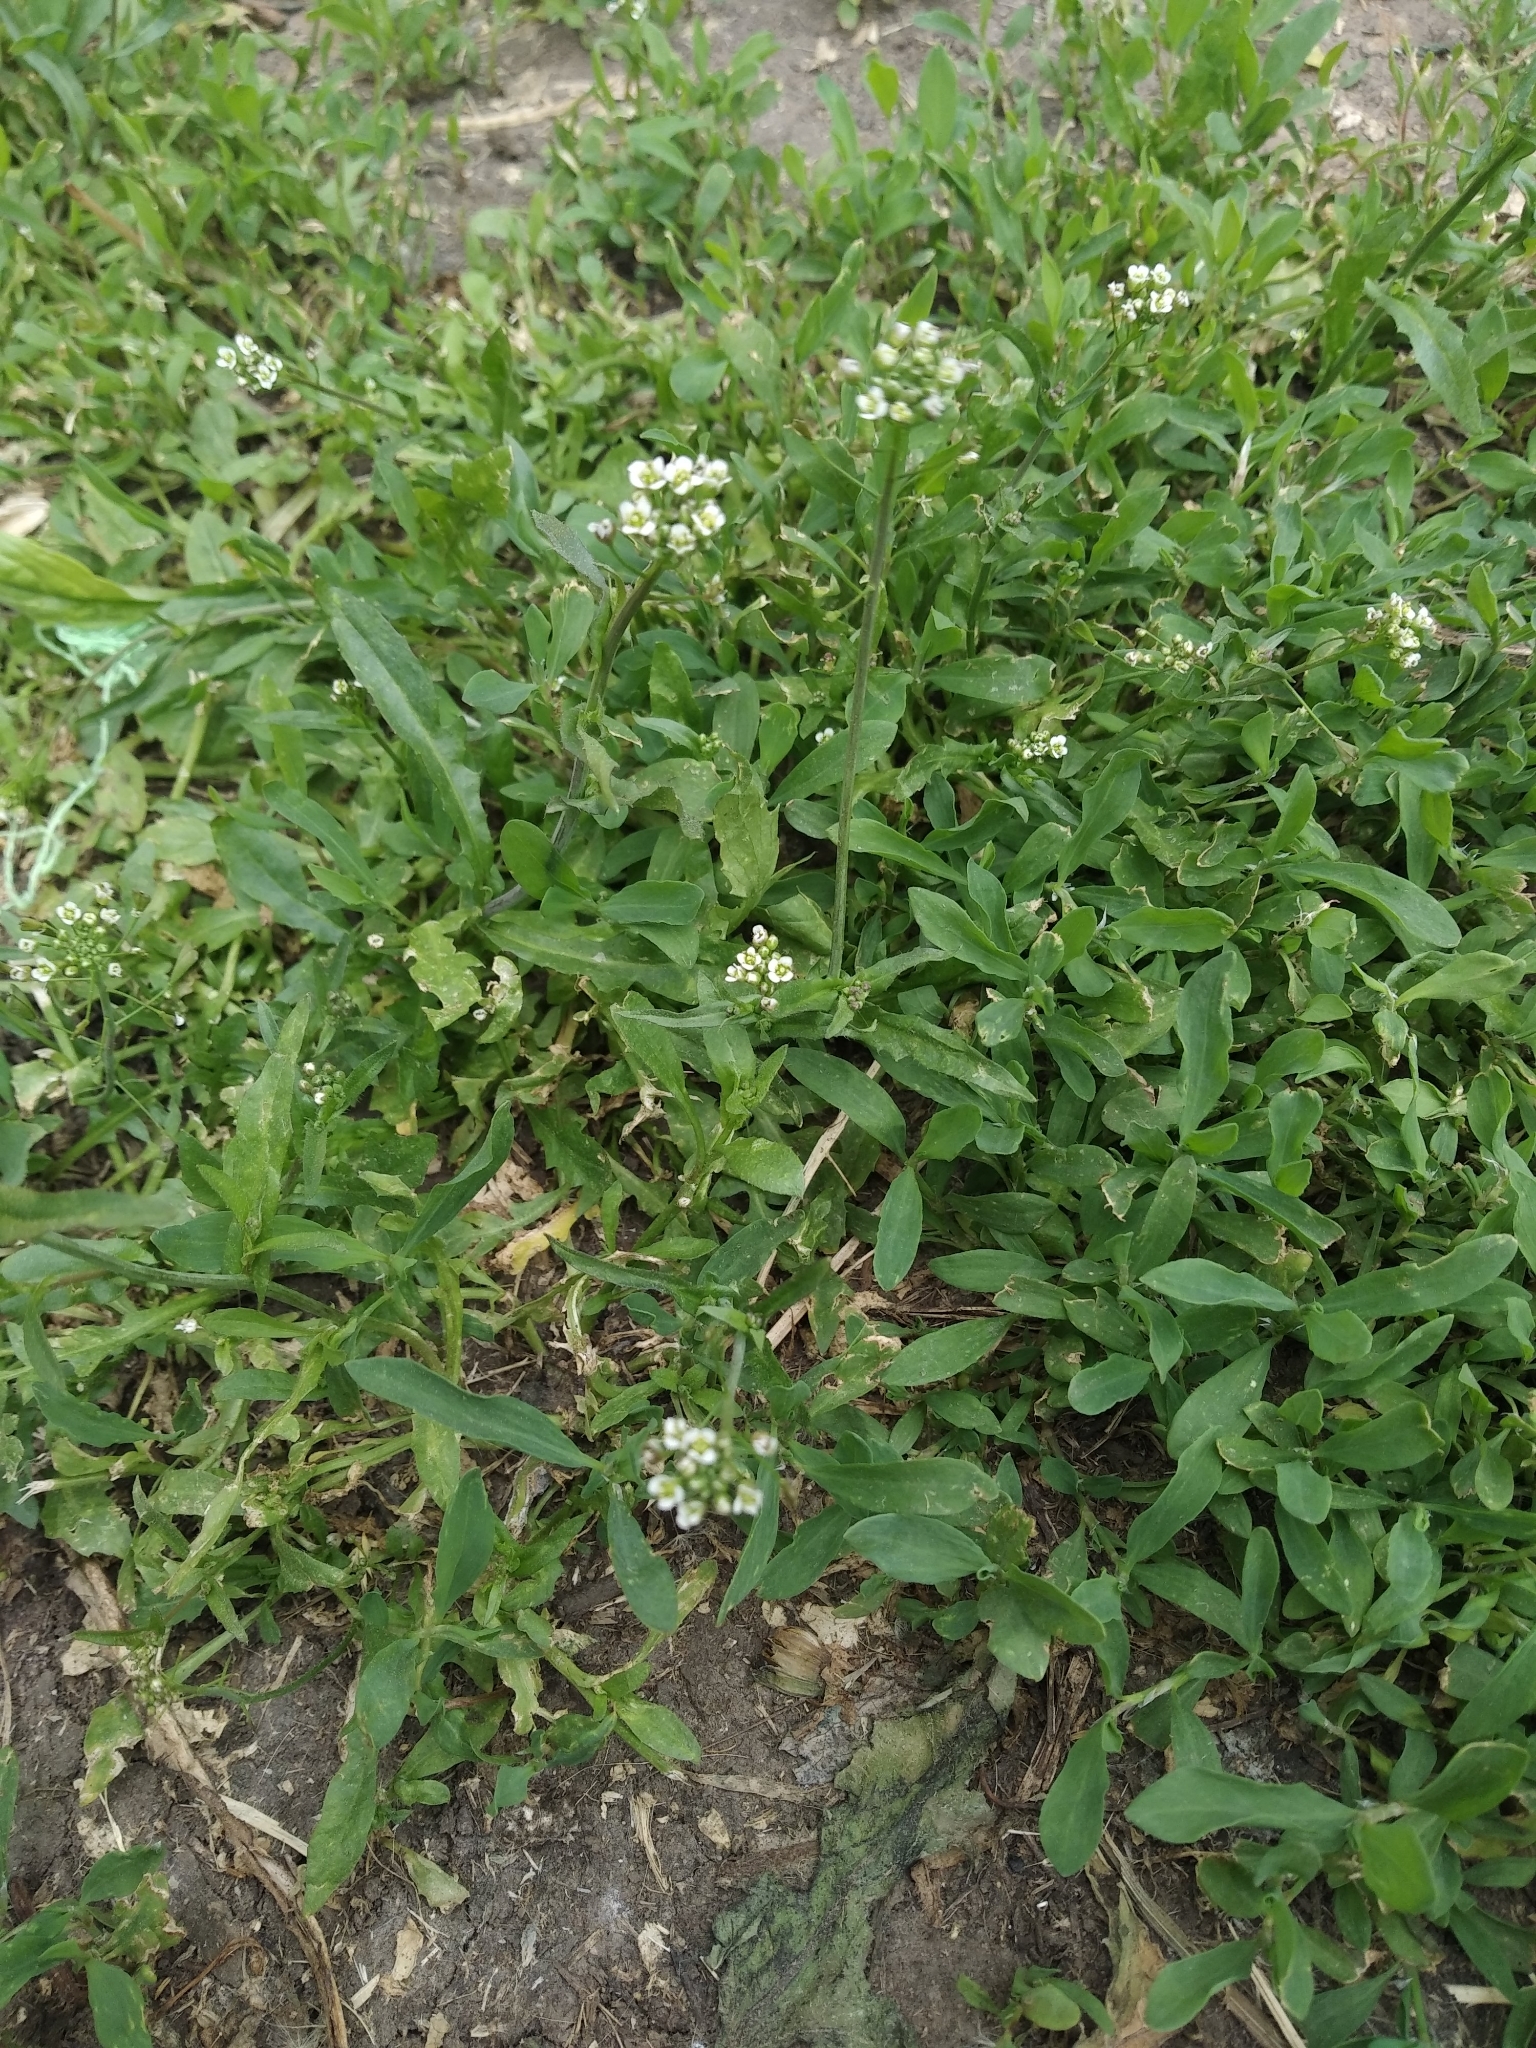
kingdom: Plantae
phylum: Tracheophyta
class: Magnoliopsida
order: Brassicales
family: Brassicaceae
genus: Capsella
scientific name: Capsella bursa-pastoris
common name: Shepherd's purse
